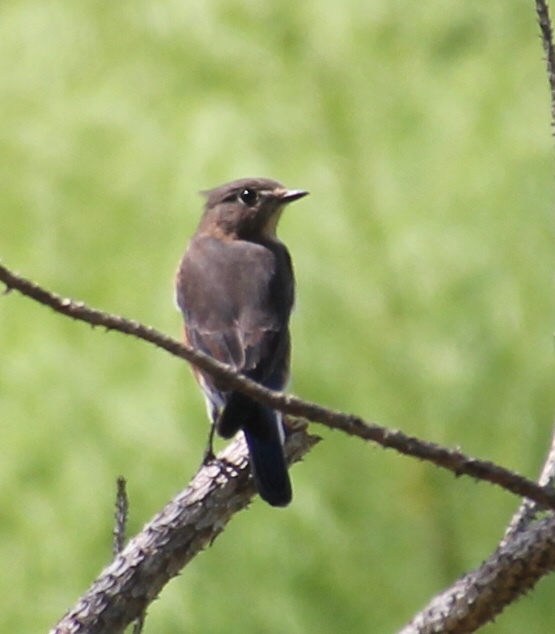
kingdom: Animalia
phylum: Chordata
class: Aves
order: Passeriformes
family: Turdidae
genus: Sialia
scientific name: Sialia sialis
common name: Eastern bluebird
